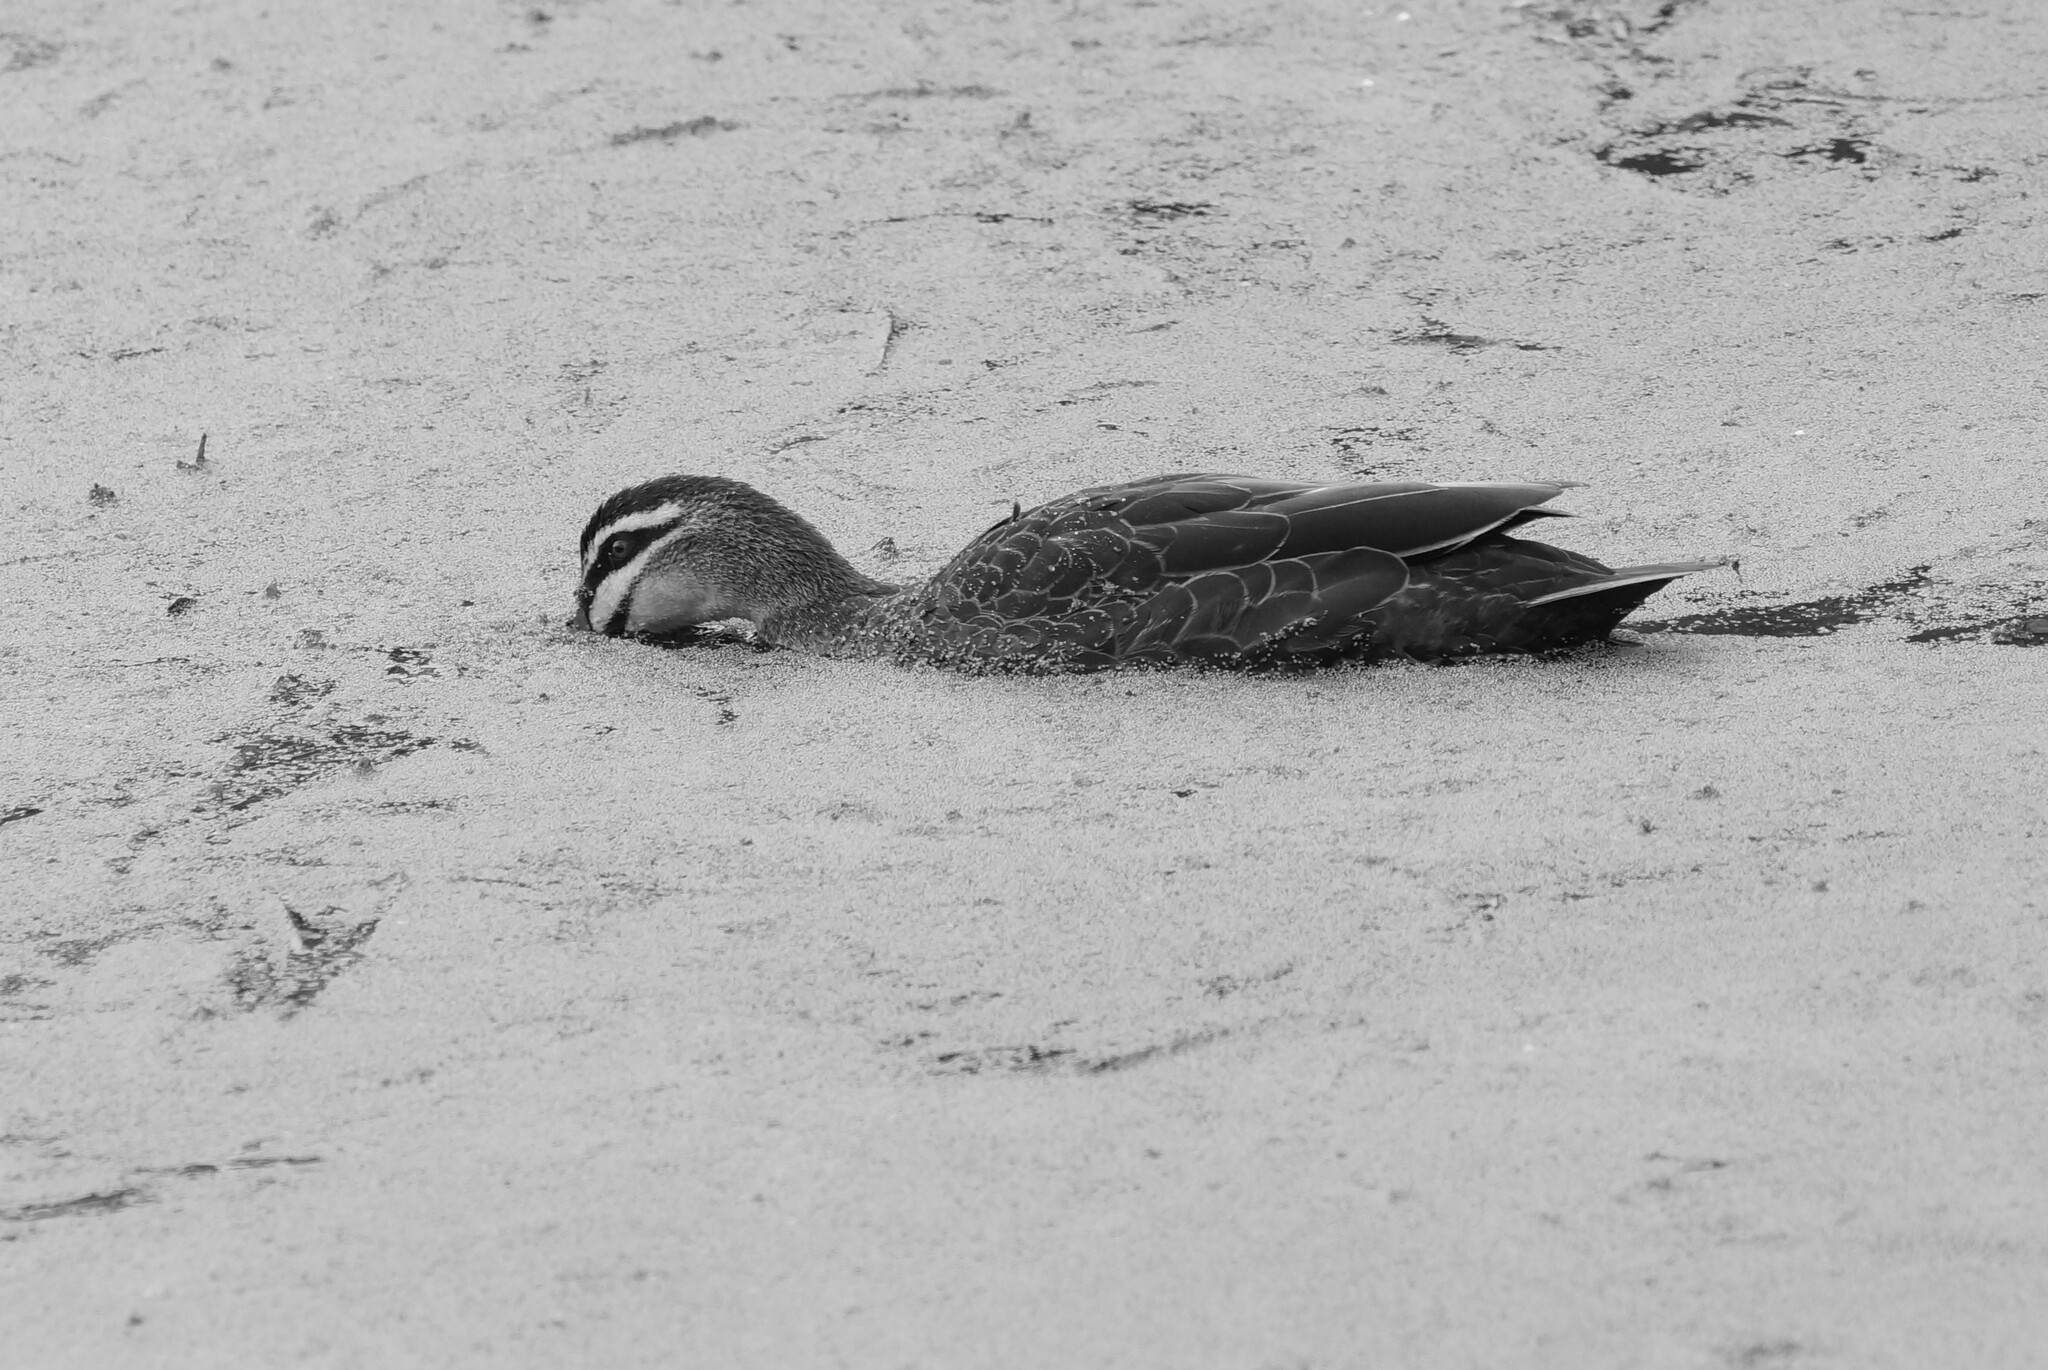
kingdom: Animalia
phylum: Chordata
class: Aves
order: Anseriformes
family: Anatidae
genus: Anas
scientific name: Anas superciliosa
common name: Pacific black duck
